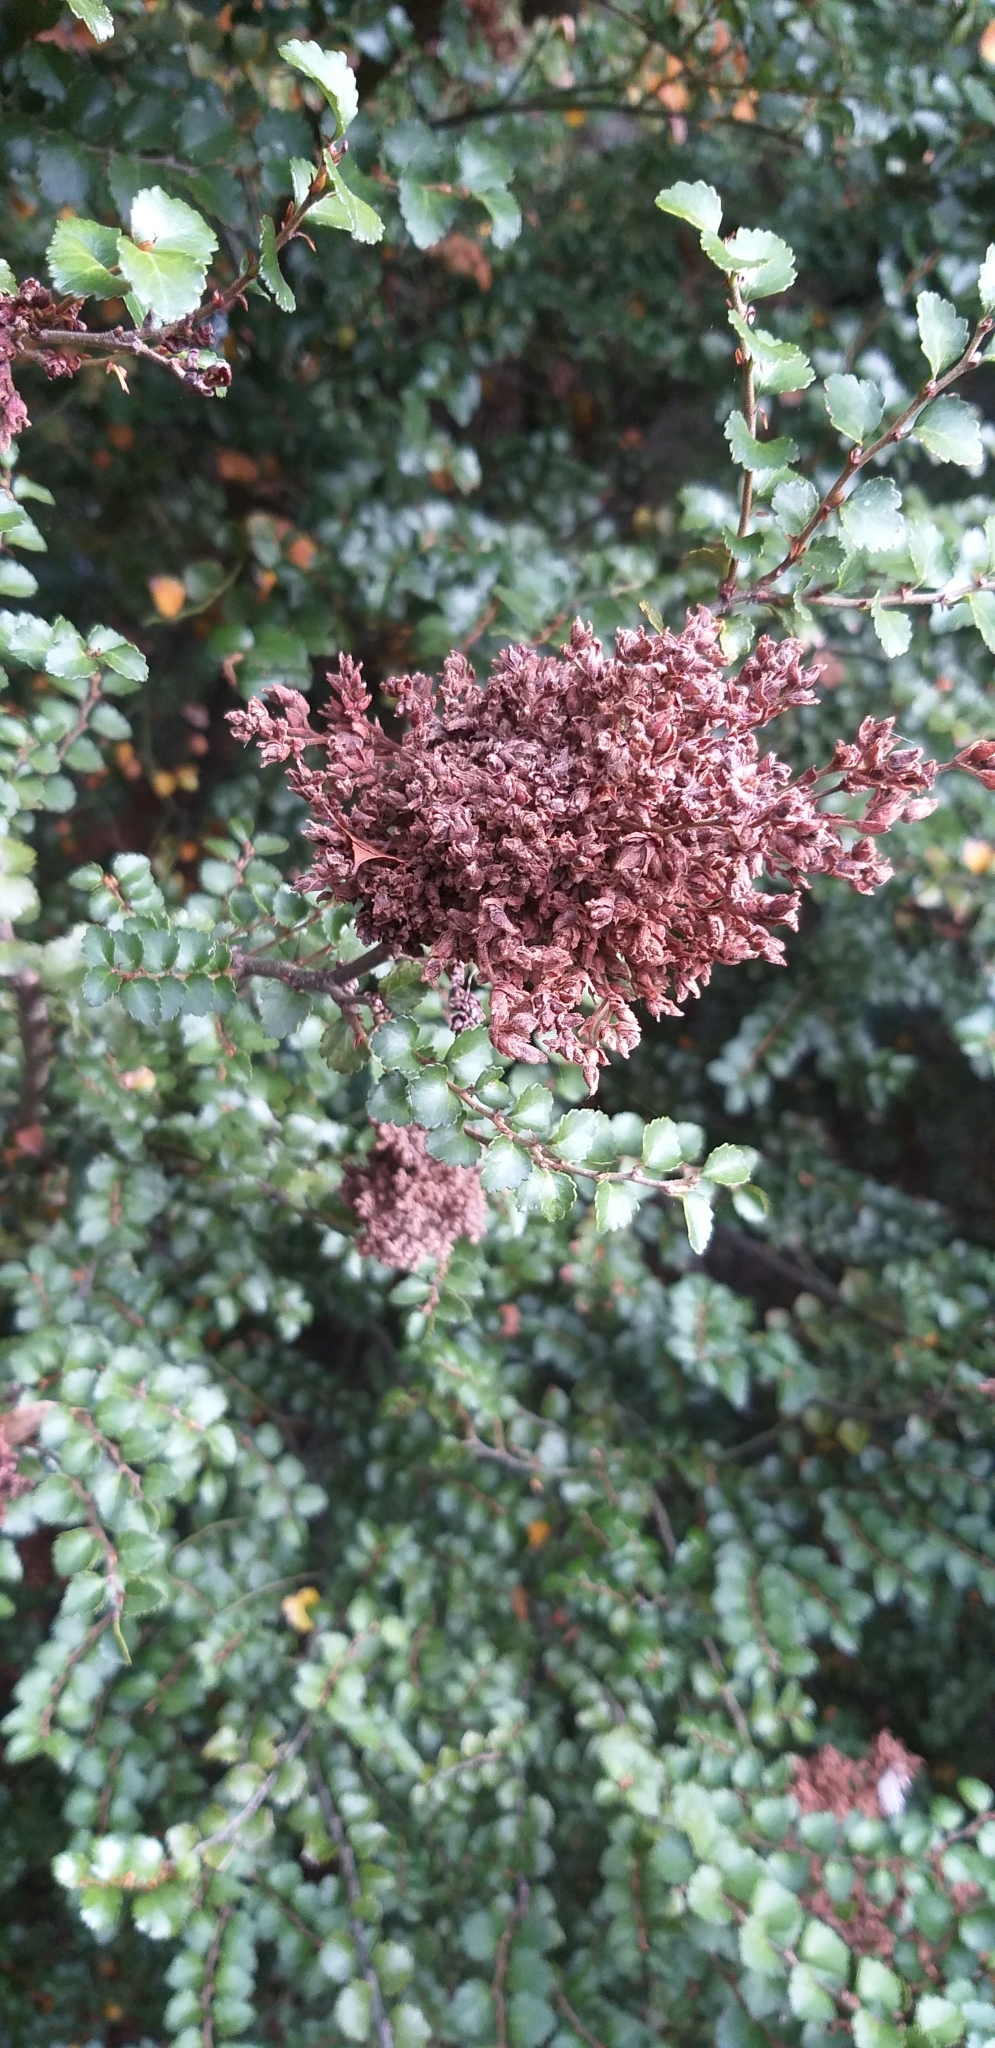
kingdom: Plantae
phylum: Tracheophyta
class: Magnoliopsida
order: Fagales
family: Nothofagaceae
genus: Nothofagus
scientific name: Nothofagus menziesii
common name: Silver beech
